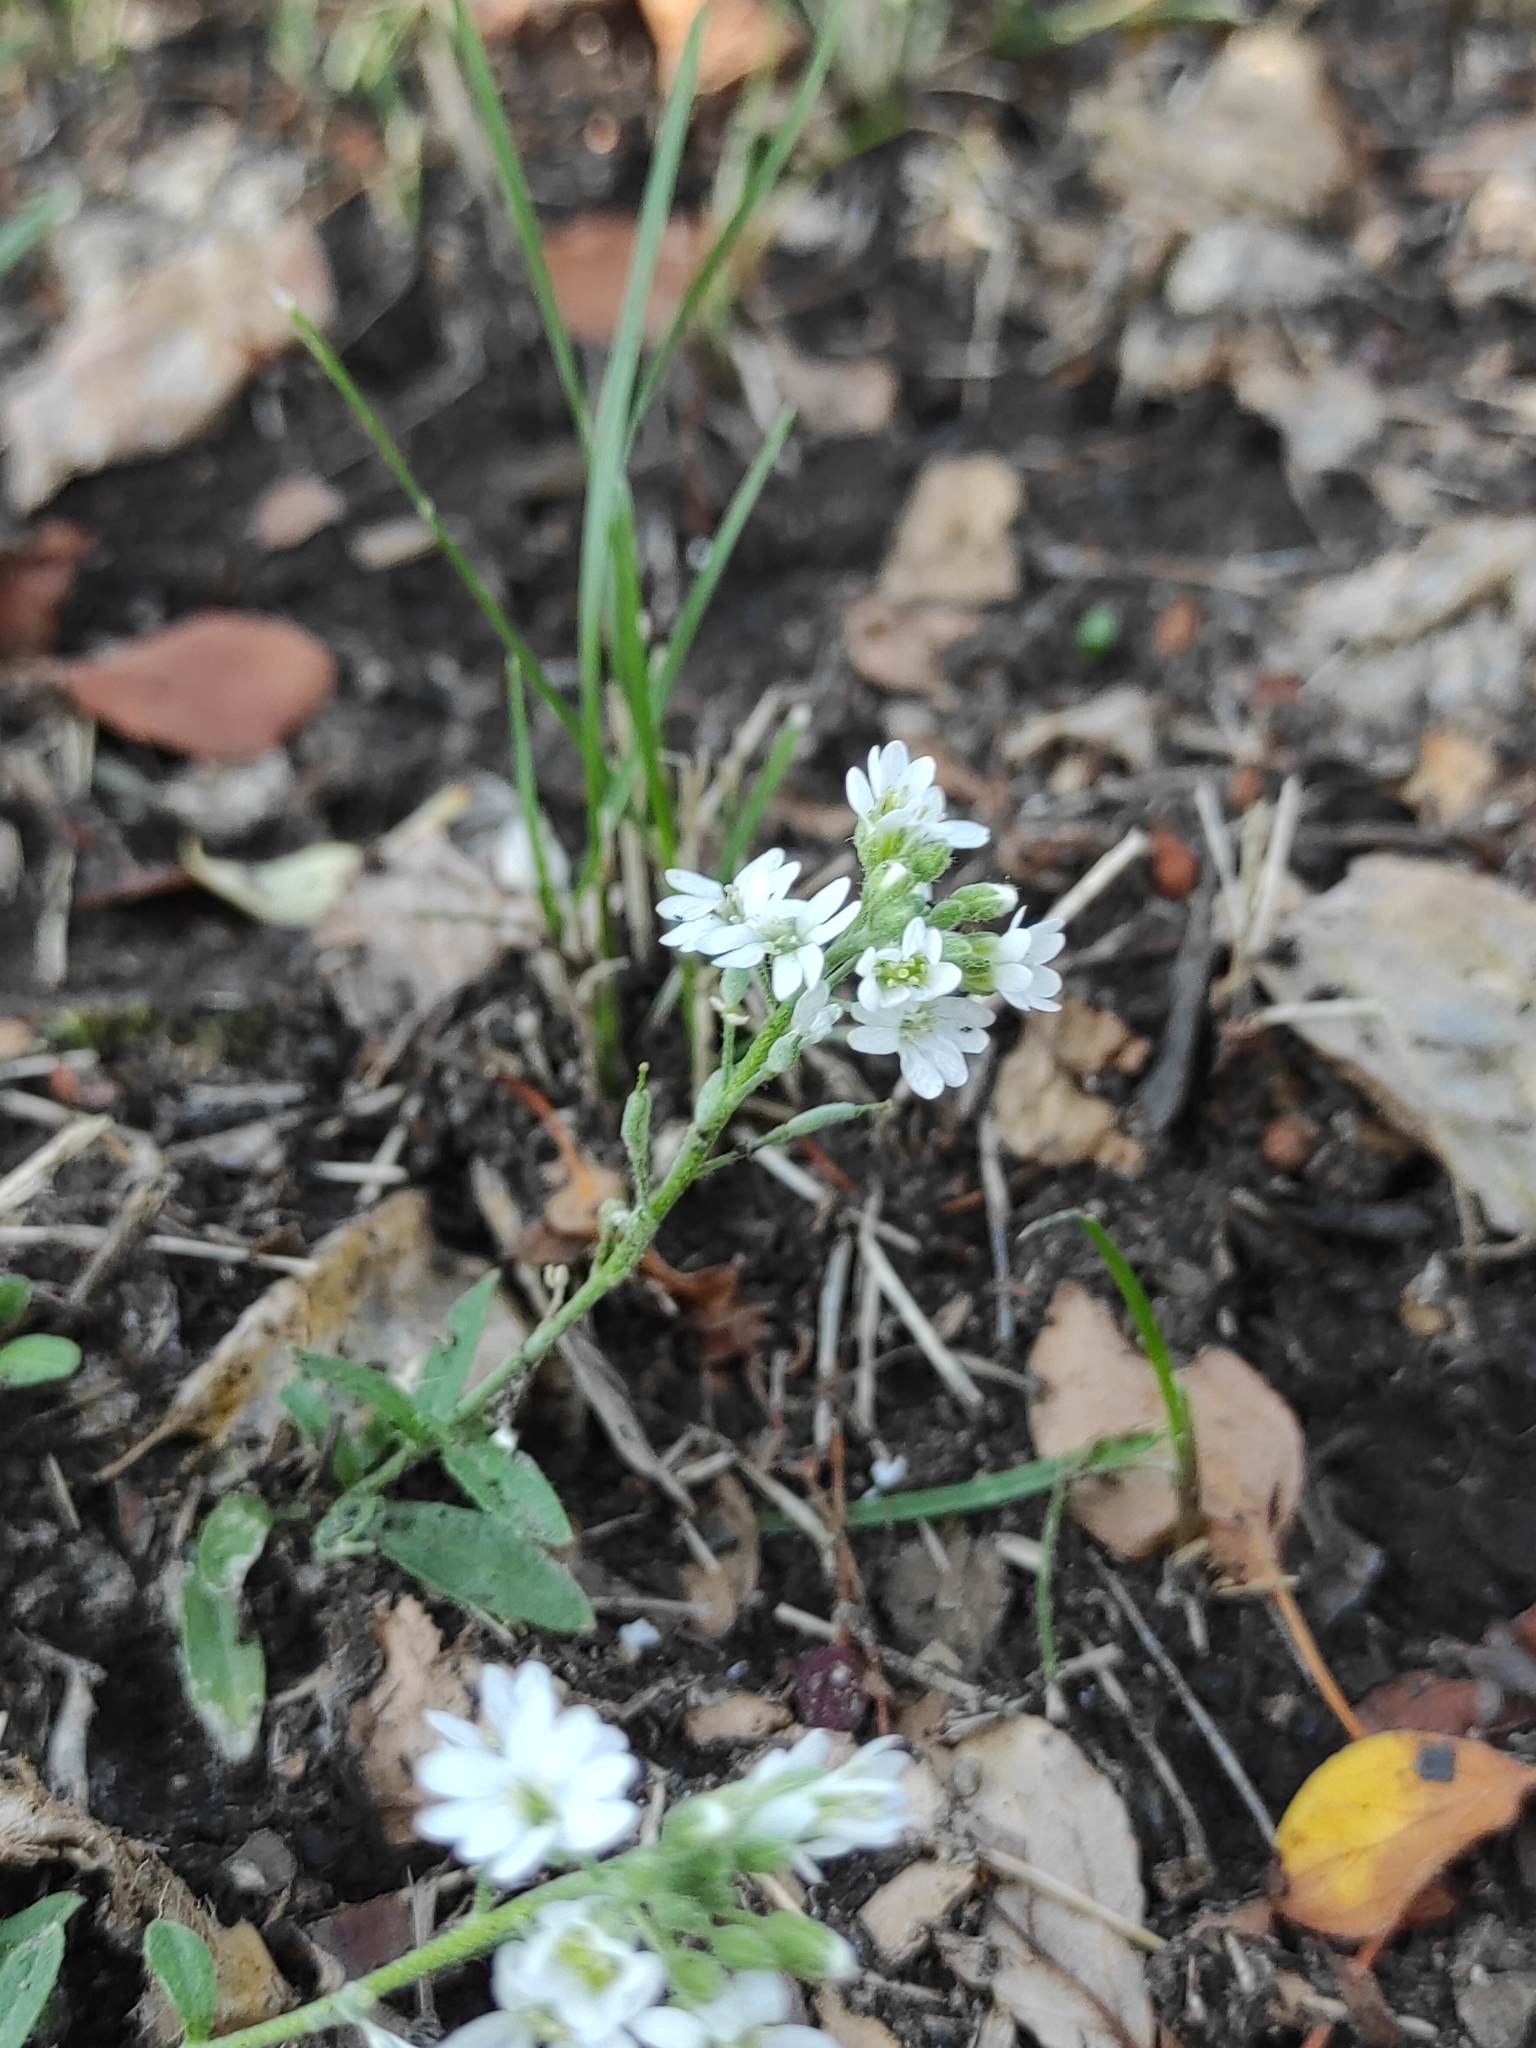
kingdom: Plantae
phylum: Tracheophyta
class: Magnoliopsida
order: Brassicales
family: Brassicaceae
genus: Berteroa
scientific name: Berteroa incana
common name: Hoary alison
